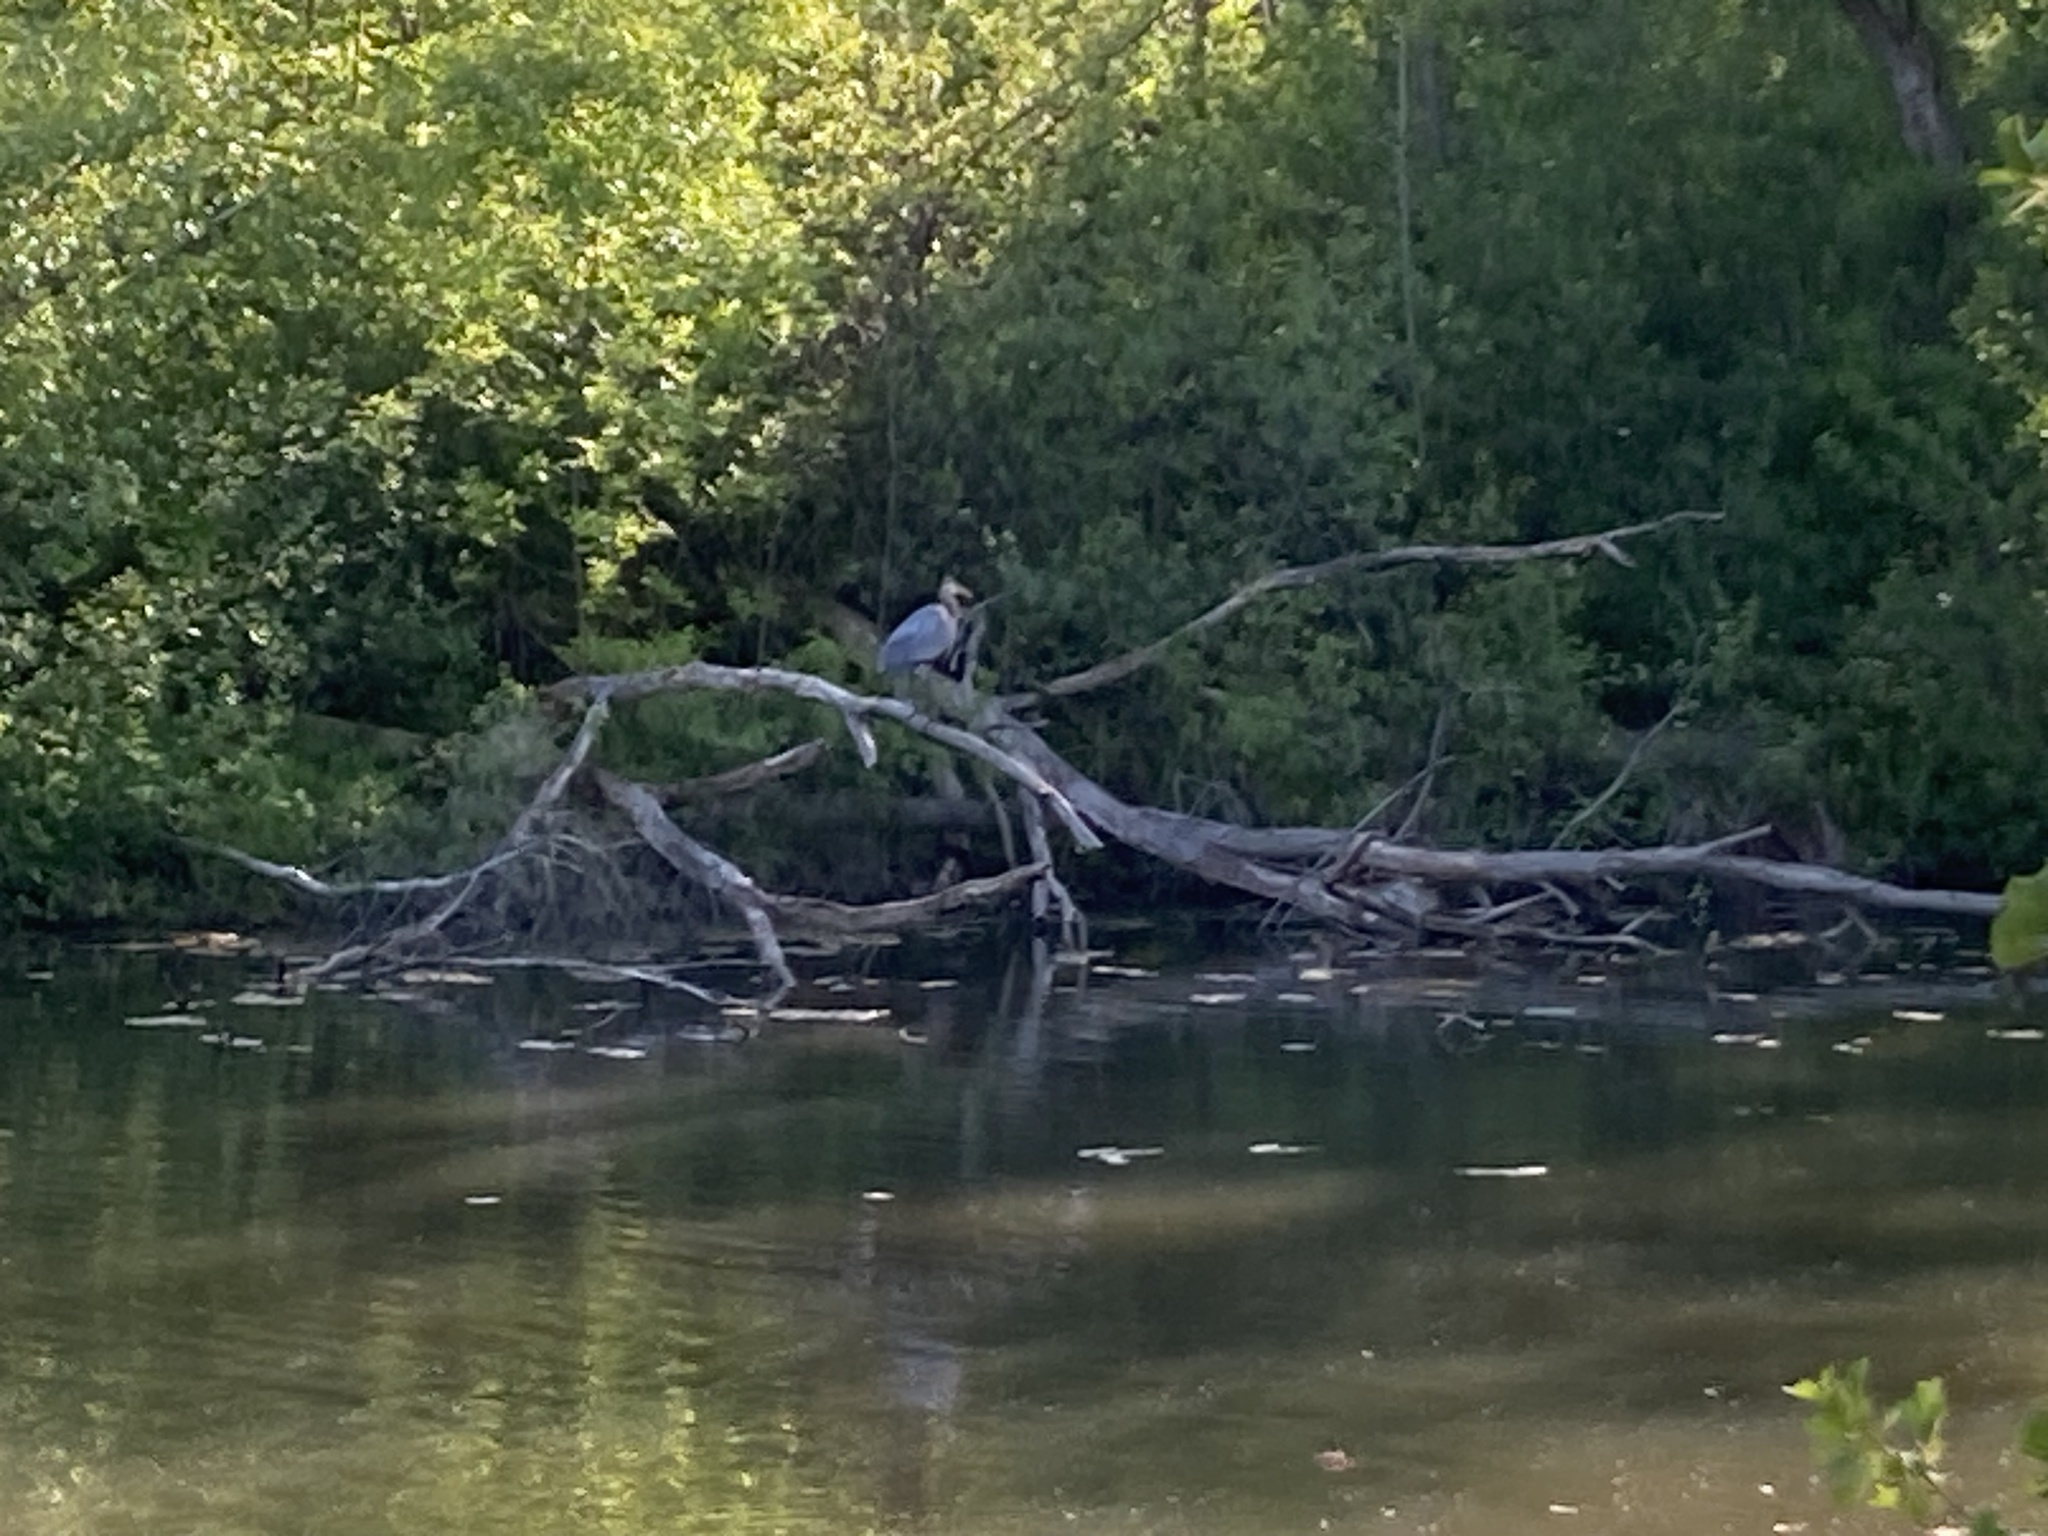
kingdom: Animalia
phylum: Chordata
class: Aves
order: Pelecaniformes
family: Ardeidae
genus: Ardea
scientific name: Ardea herodias
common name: Great blue heron
